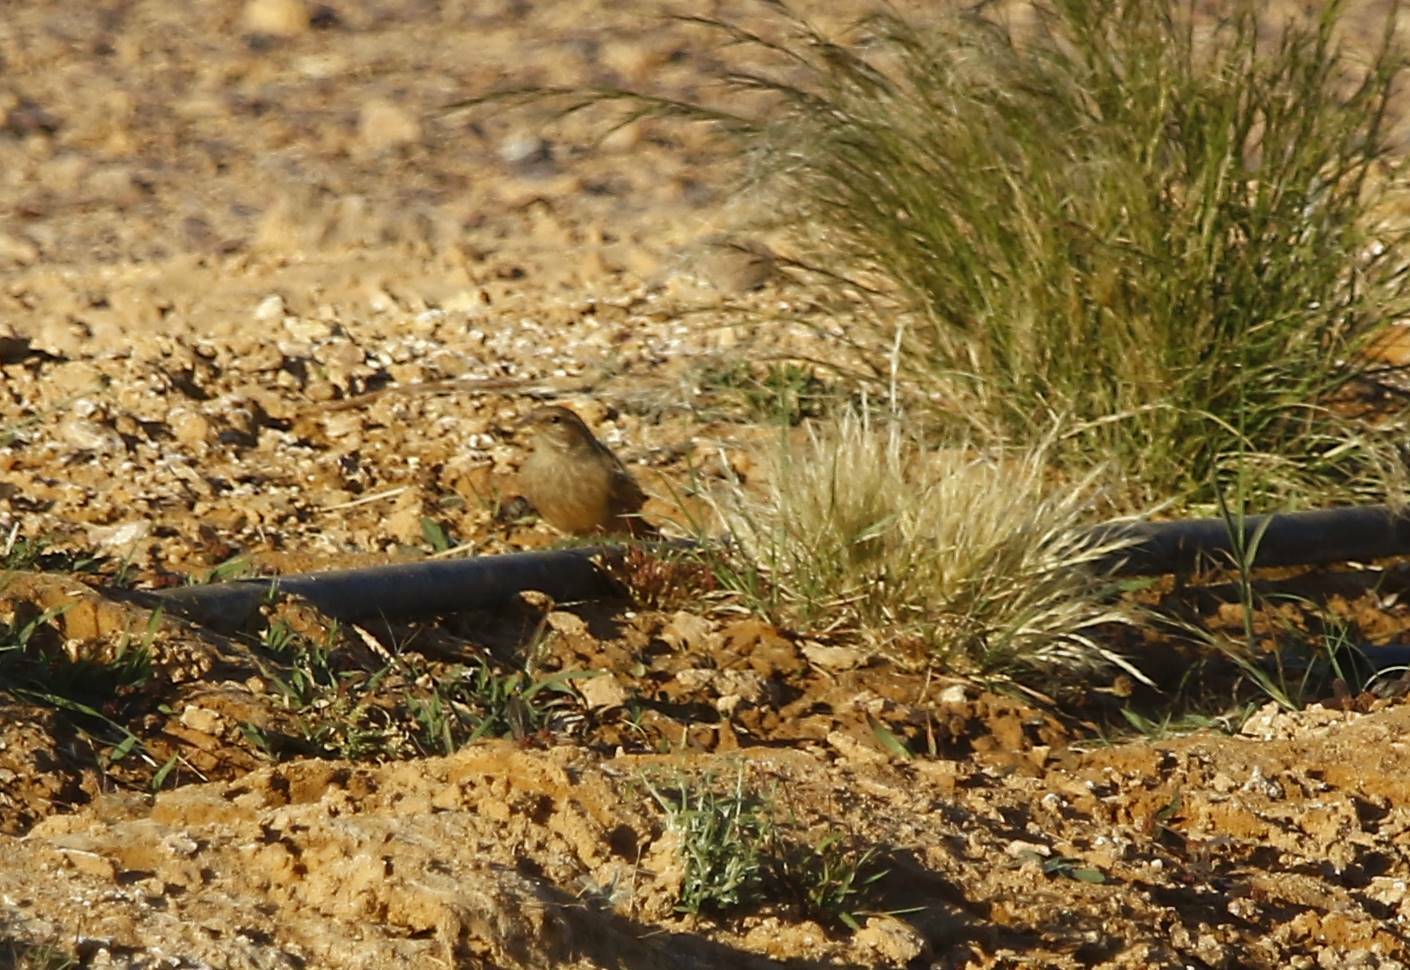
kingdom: Animalia
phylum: Chordata
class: Aves
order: Passeriformes
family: Emberizidae
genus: Emberiza
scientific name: Emberiza sahari
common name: House bunting
